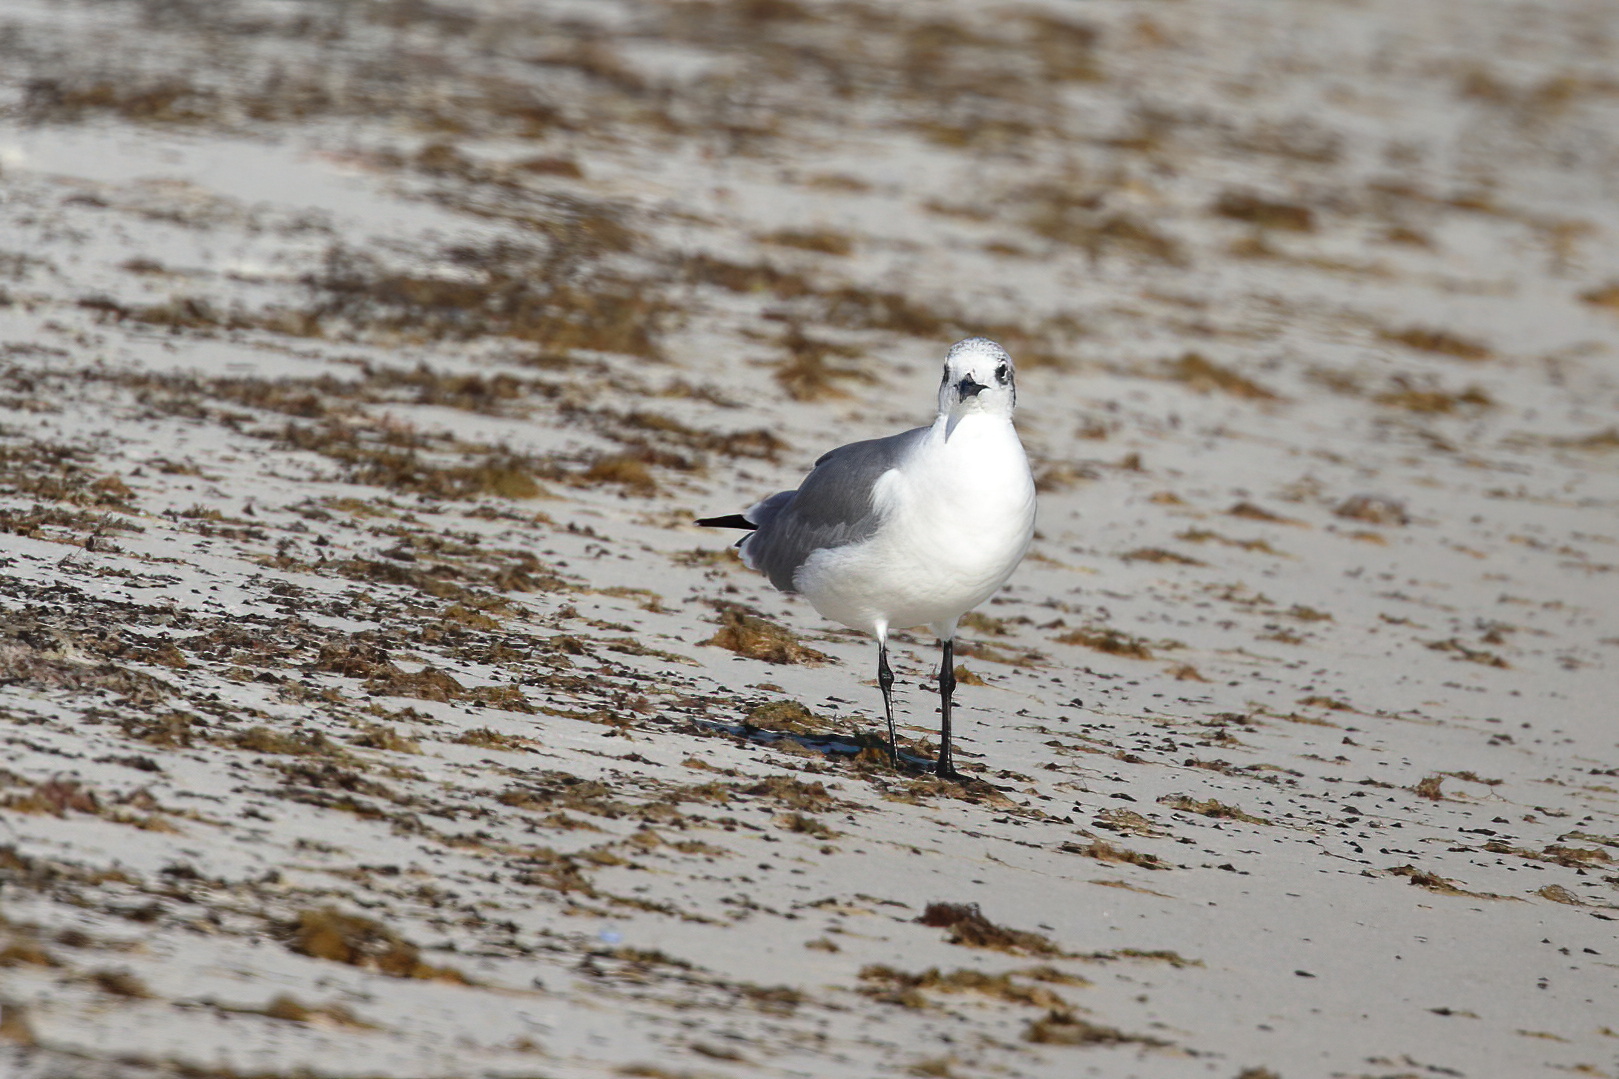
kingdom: Animalia
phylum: Chordata
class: Aves
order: Charadriiformes
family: Laridae
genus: Leucophaeus
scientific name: Leucophaeus atricilla
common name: Laughing gull
